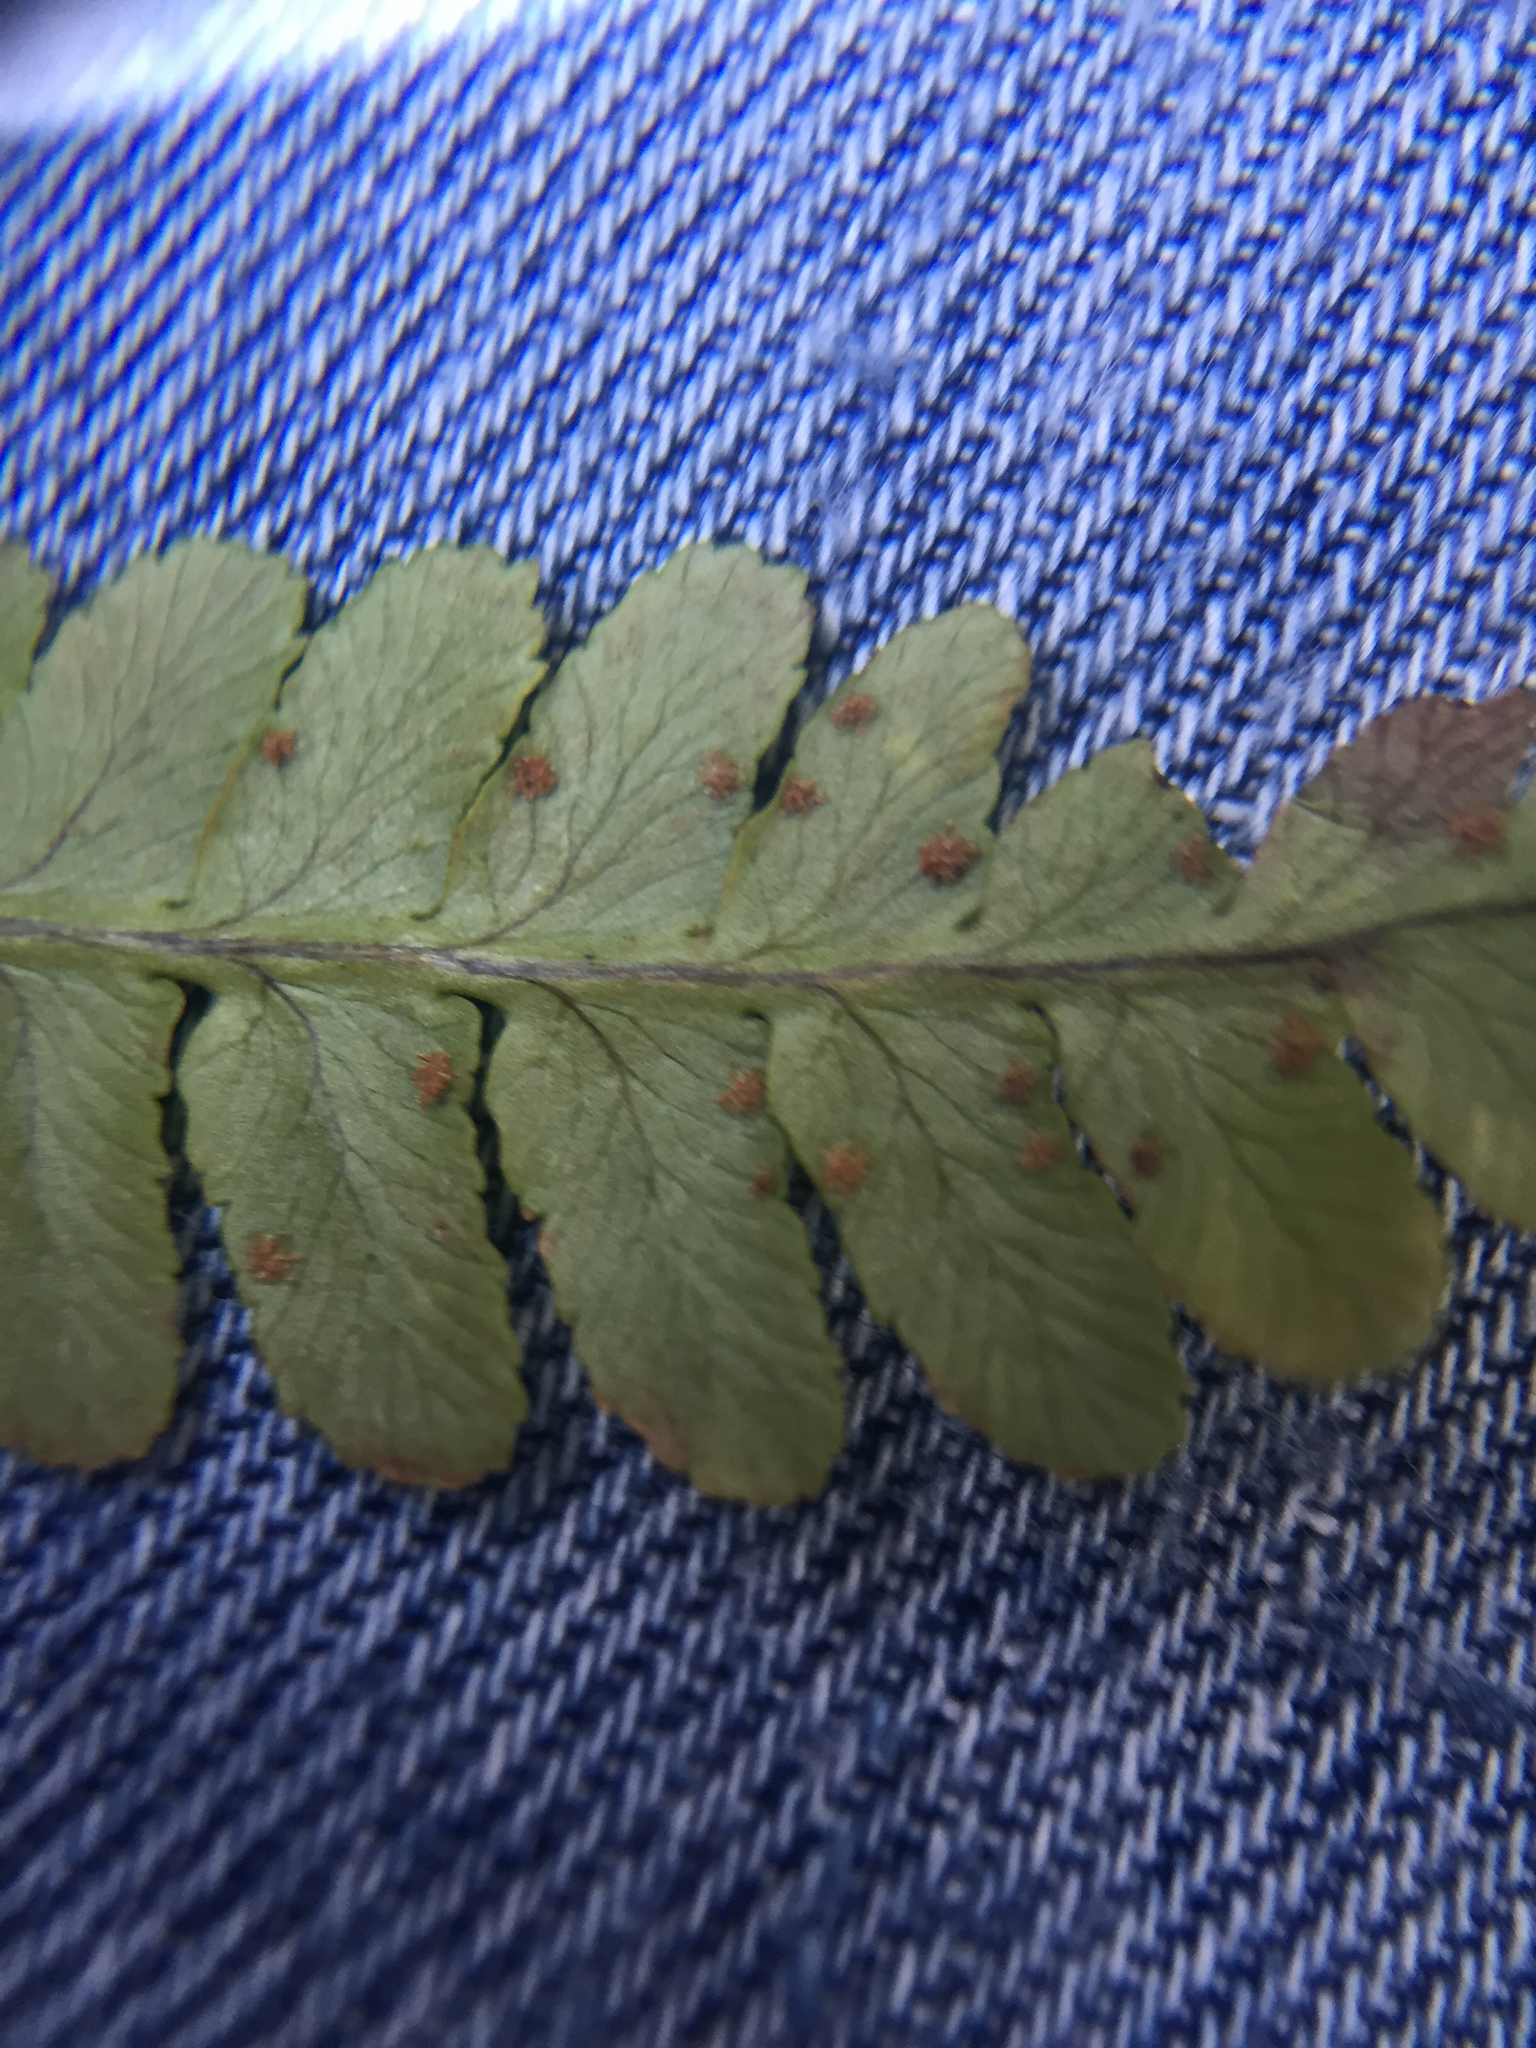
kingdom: Plantae
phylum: Tracheophyta
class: Polypodiopsida
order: Polypodiales
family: Dryopteridaceae
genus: Dryopteris
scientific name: Dryopteris marginalis
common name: Marginal wood fern
